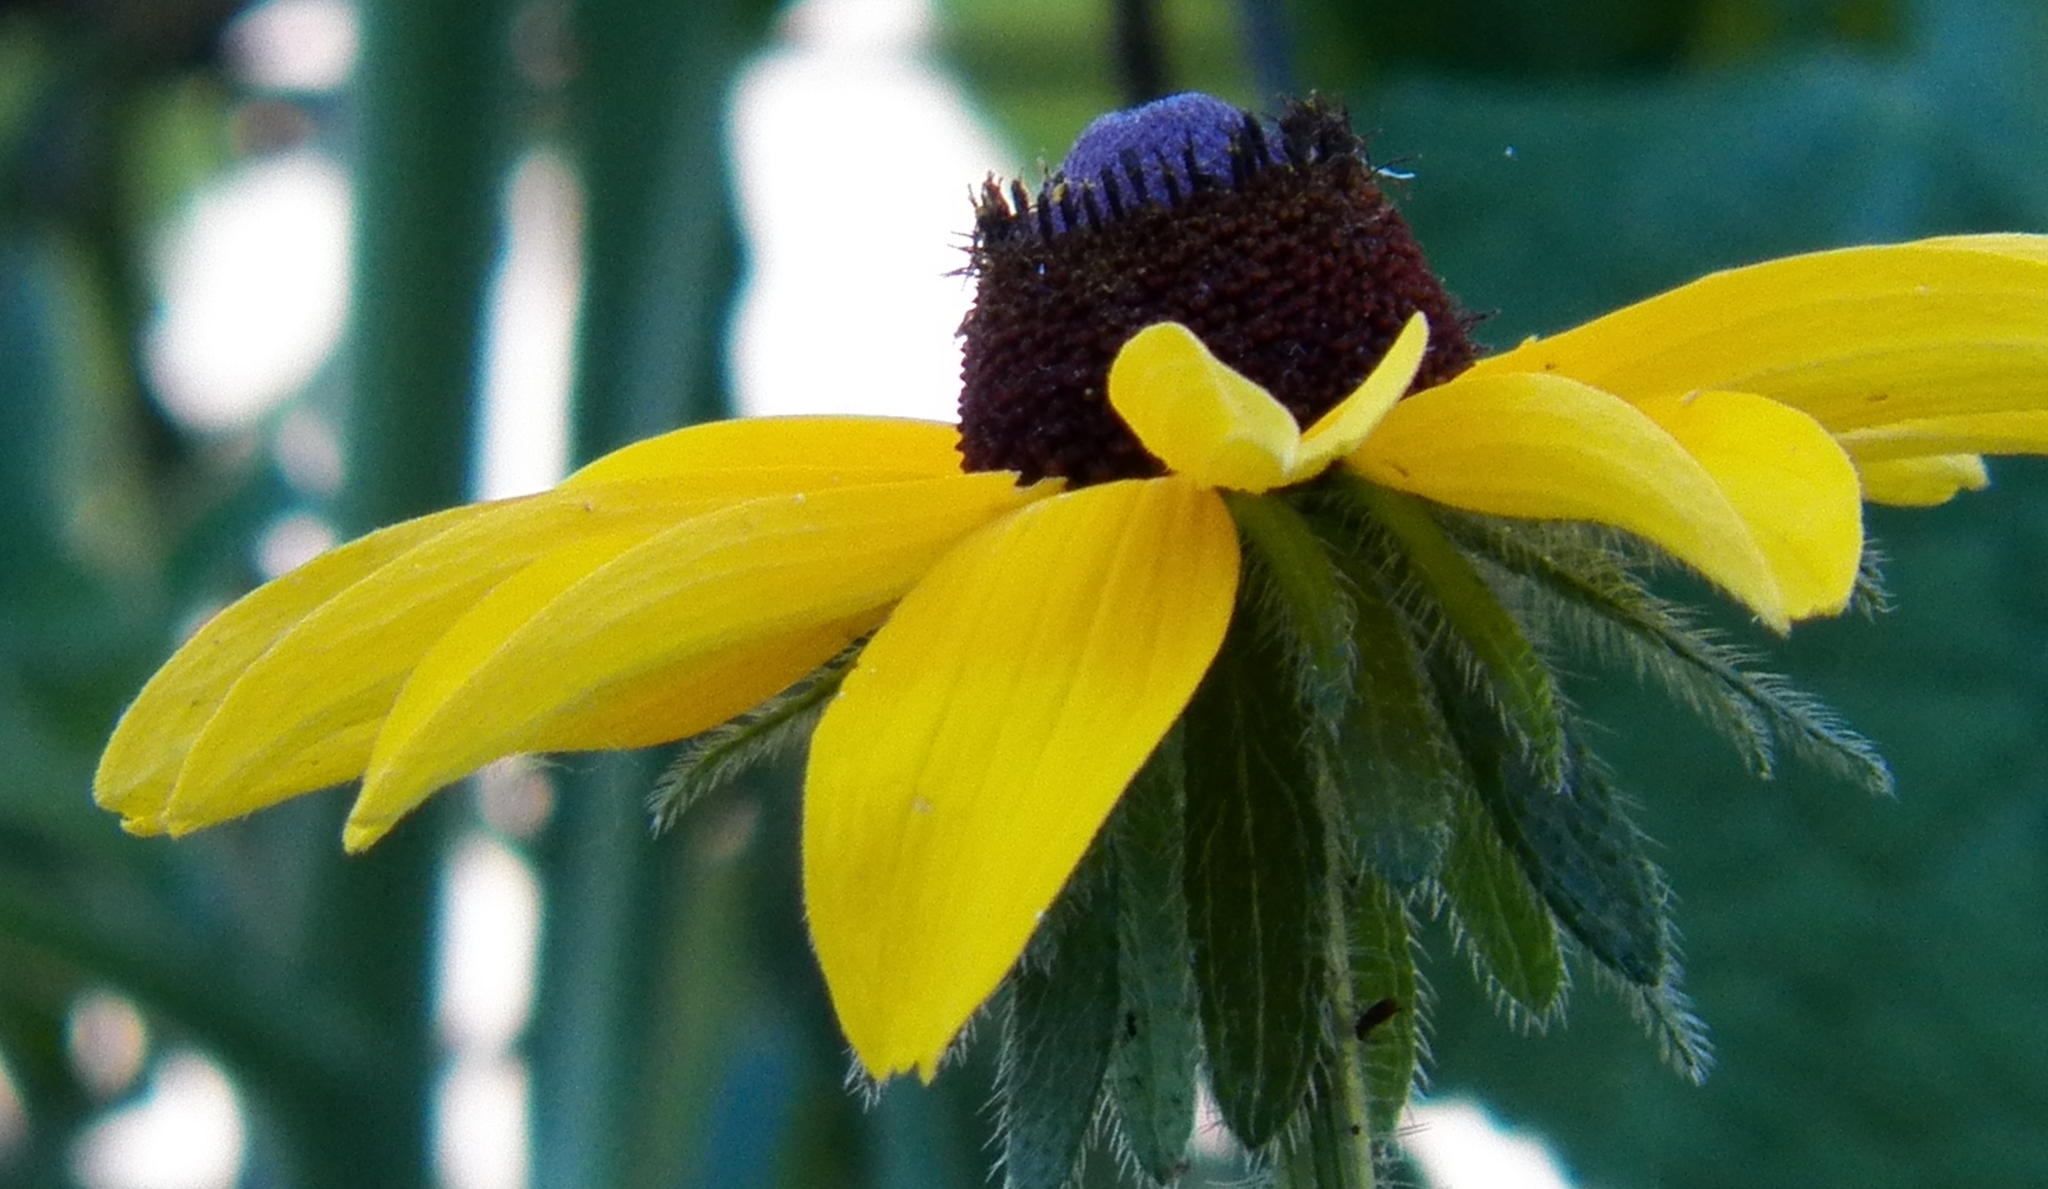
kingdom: Plantae
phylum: Tracheophyta
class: Magnoliopsida
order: Asterales
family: Asteraceae
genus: Rudbeckia
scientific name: Rudbeckia hirta
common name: Black-eyed-susan
